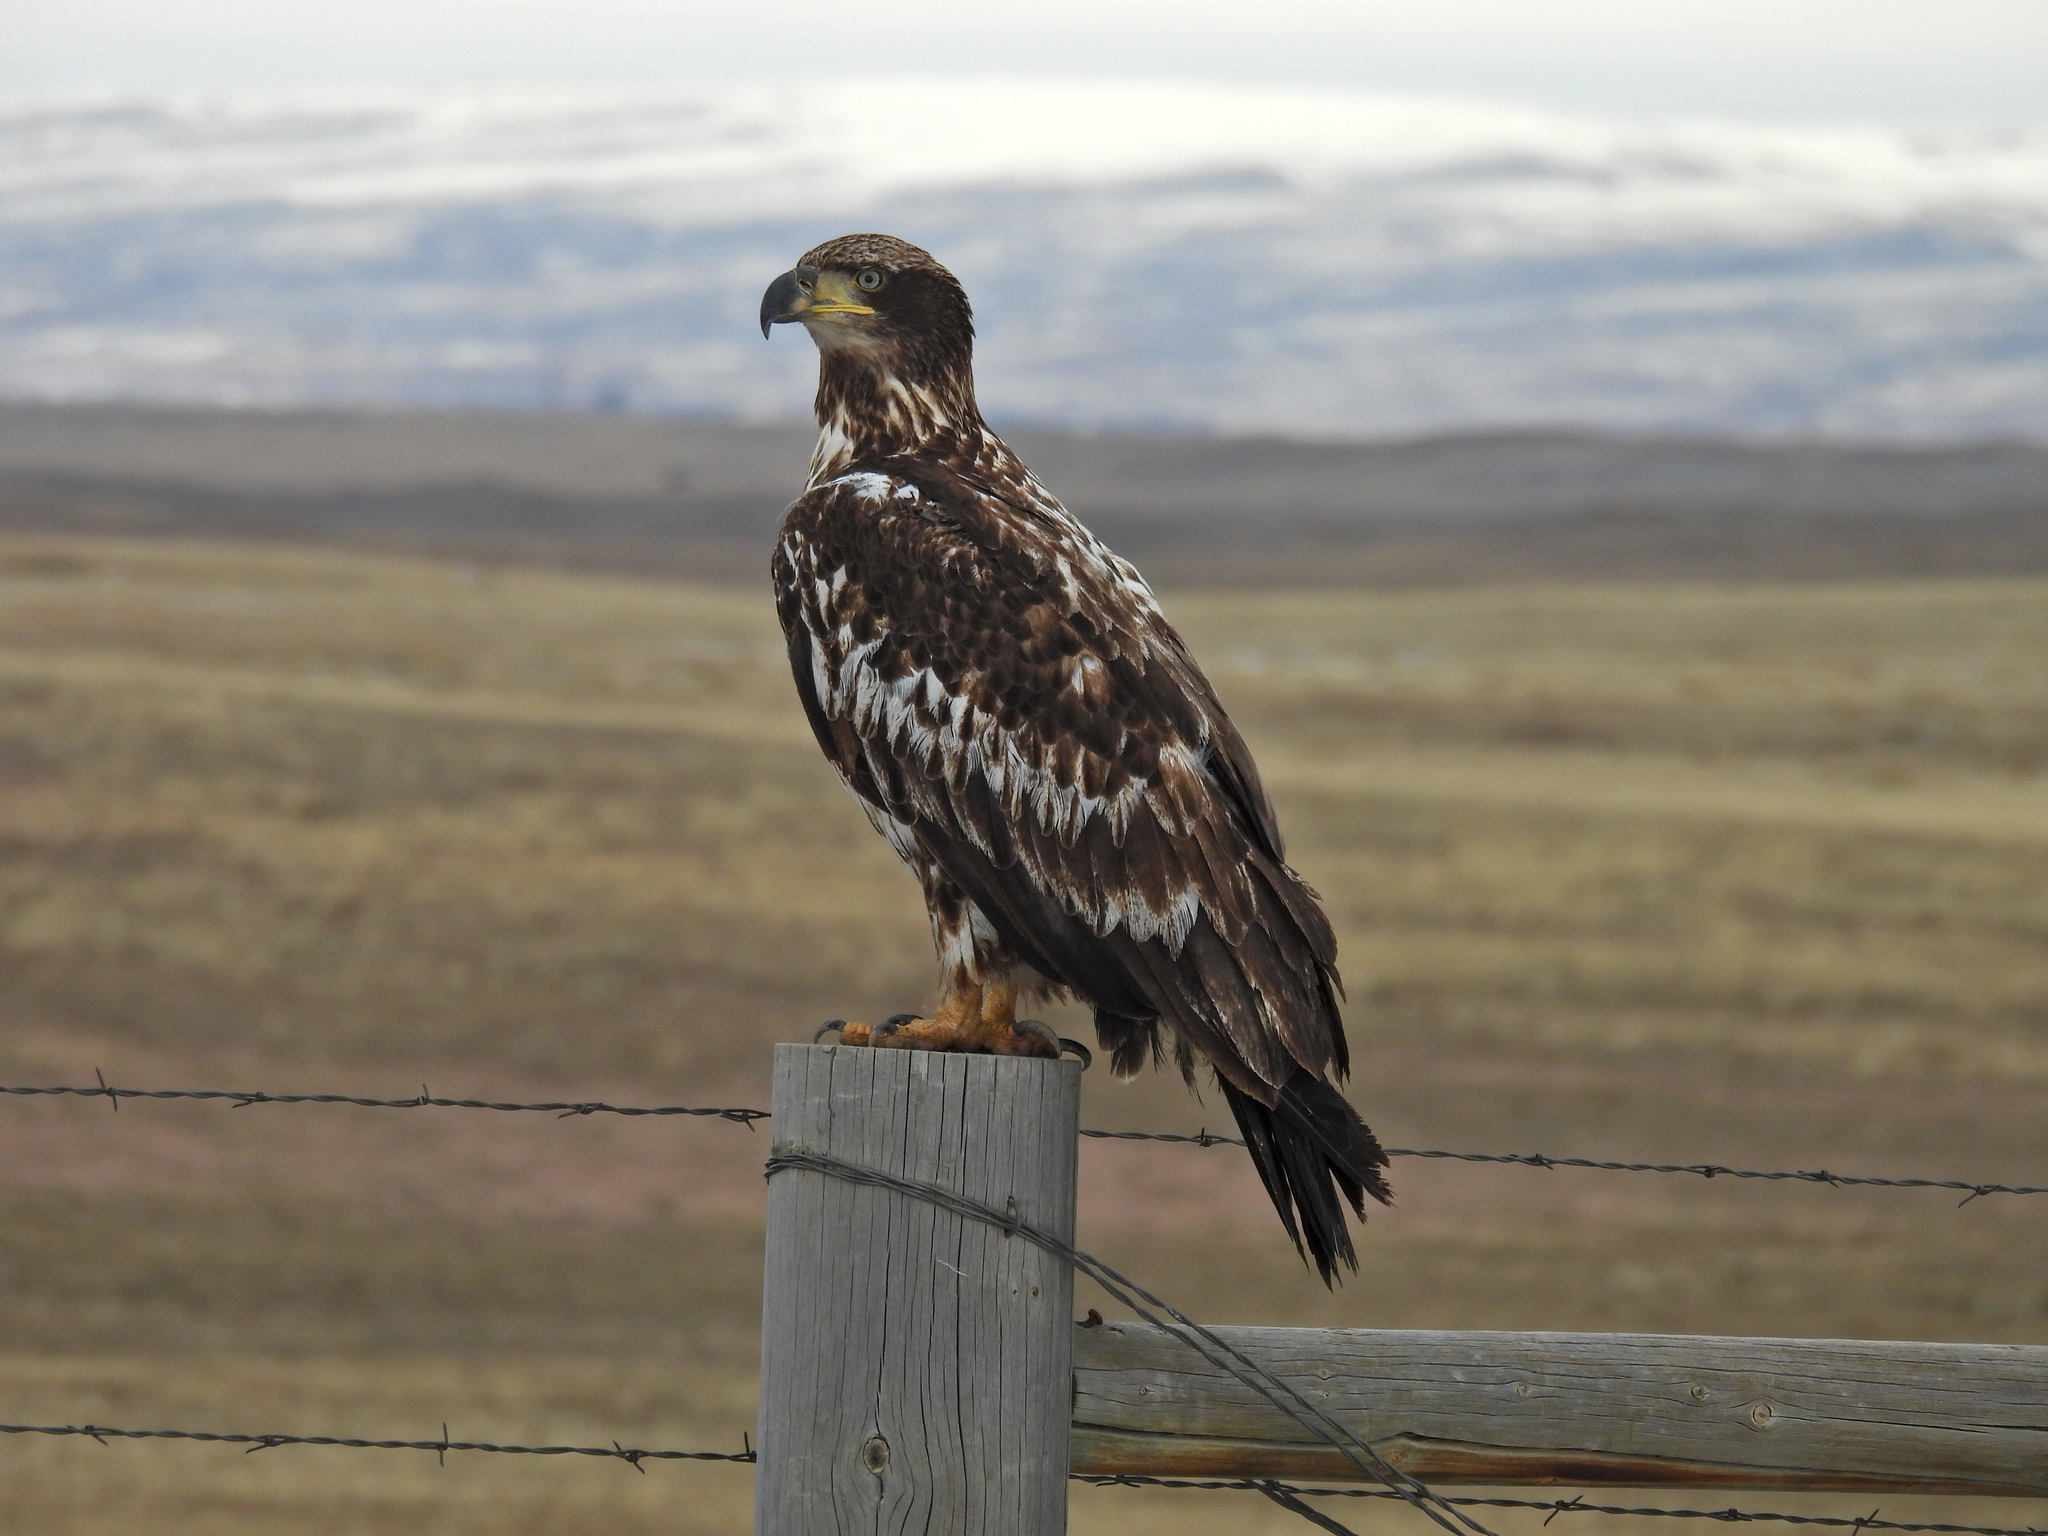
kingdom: Animalia
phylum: Chordata
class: Aves
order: Accipitriformes
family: Accipitridae
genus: Haliaeetus
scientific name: Haliaeetus leucocephalus
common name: Bald eagle
